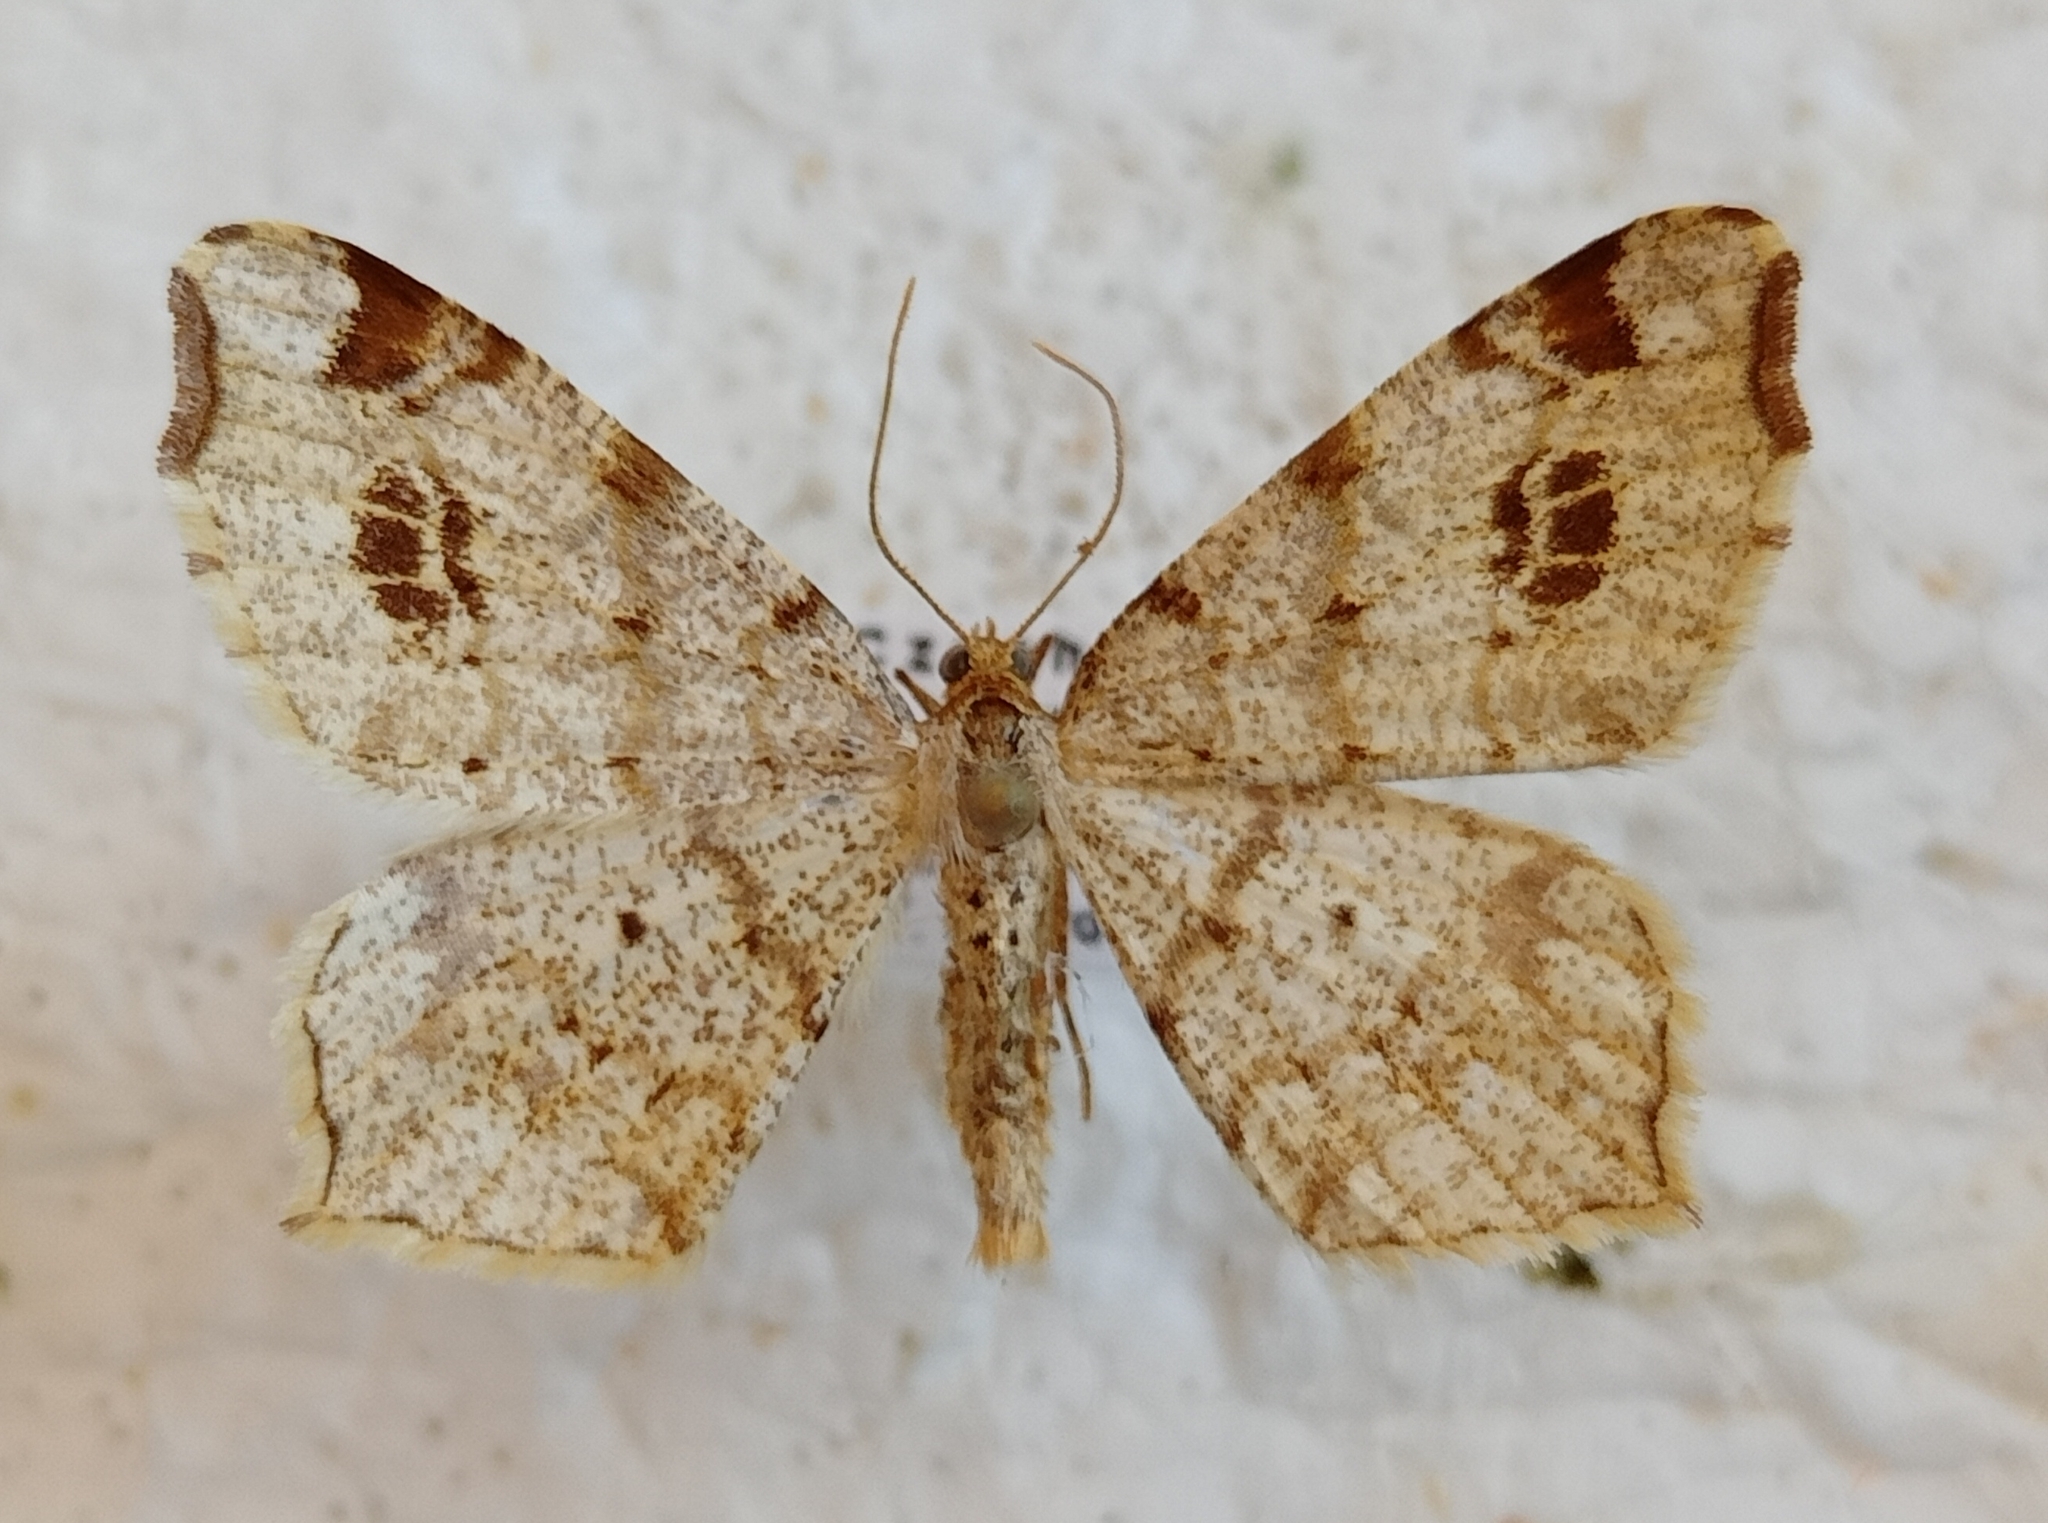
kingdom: Animalia
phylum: Arthropoda
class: Insecta
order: Lepidoptera
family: Geometridae
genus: Macaria
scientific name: Macaria notata
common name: Peacock moth
